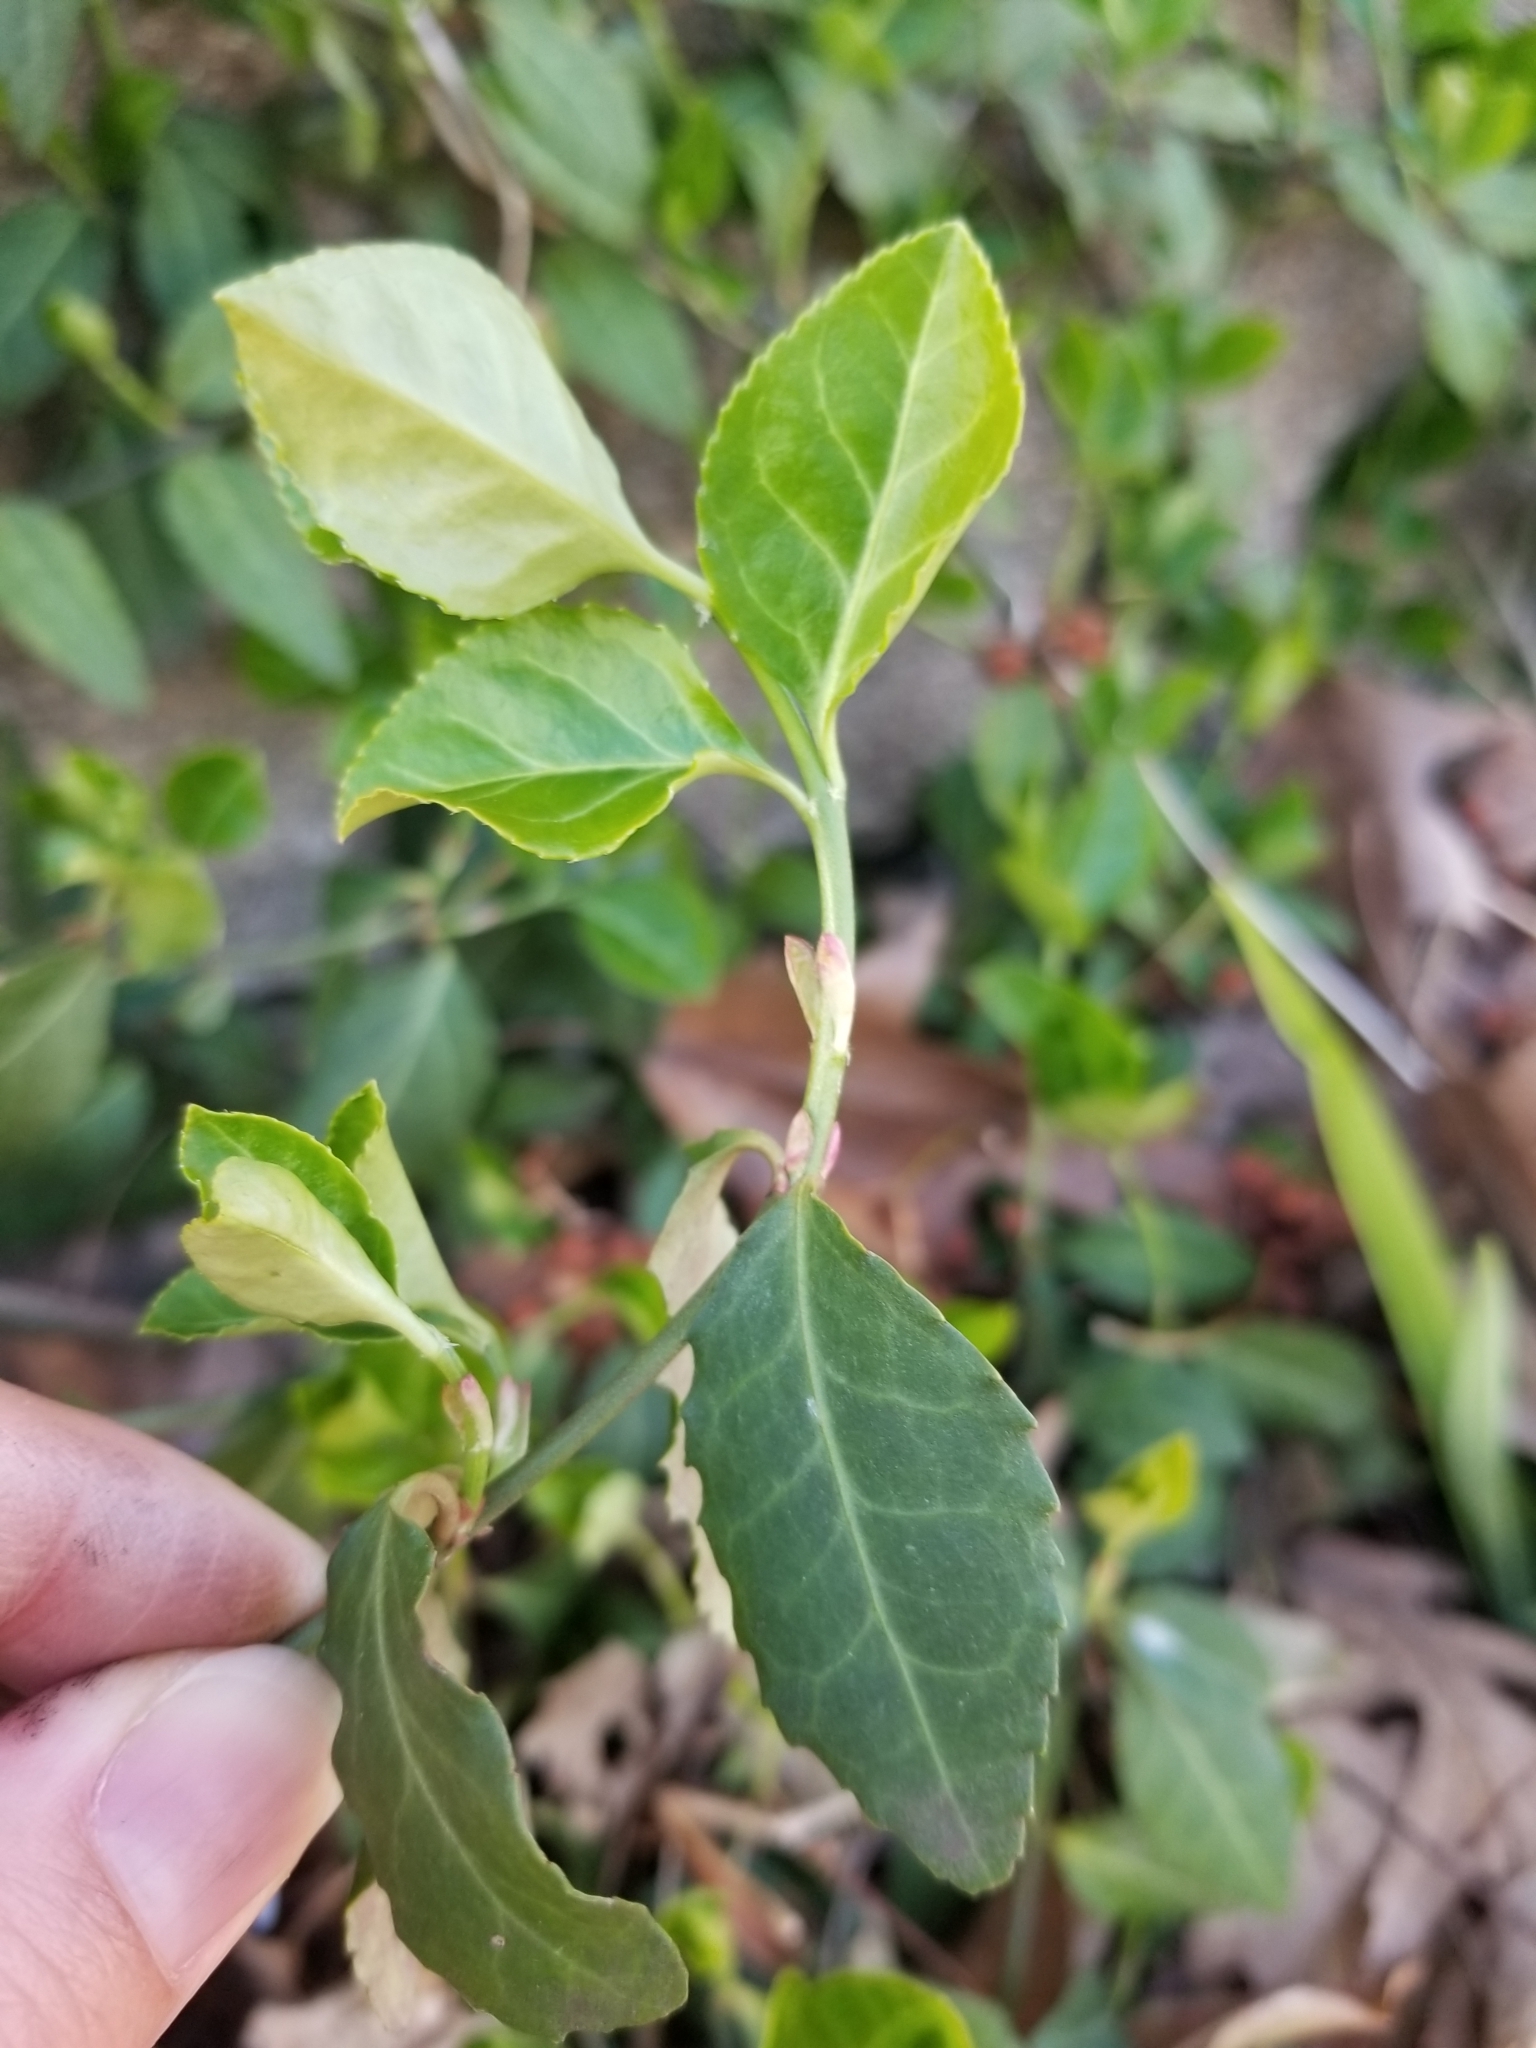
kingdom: Plantae
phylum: Tracheophyta
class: Magnoliopsida
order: Celastrales
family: Celastraceae
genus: Euonymus
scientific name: Euonymus fortunei
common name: Climbing euonymus
